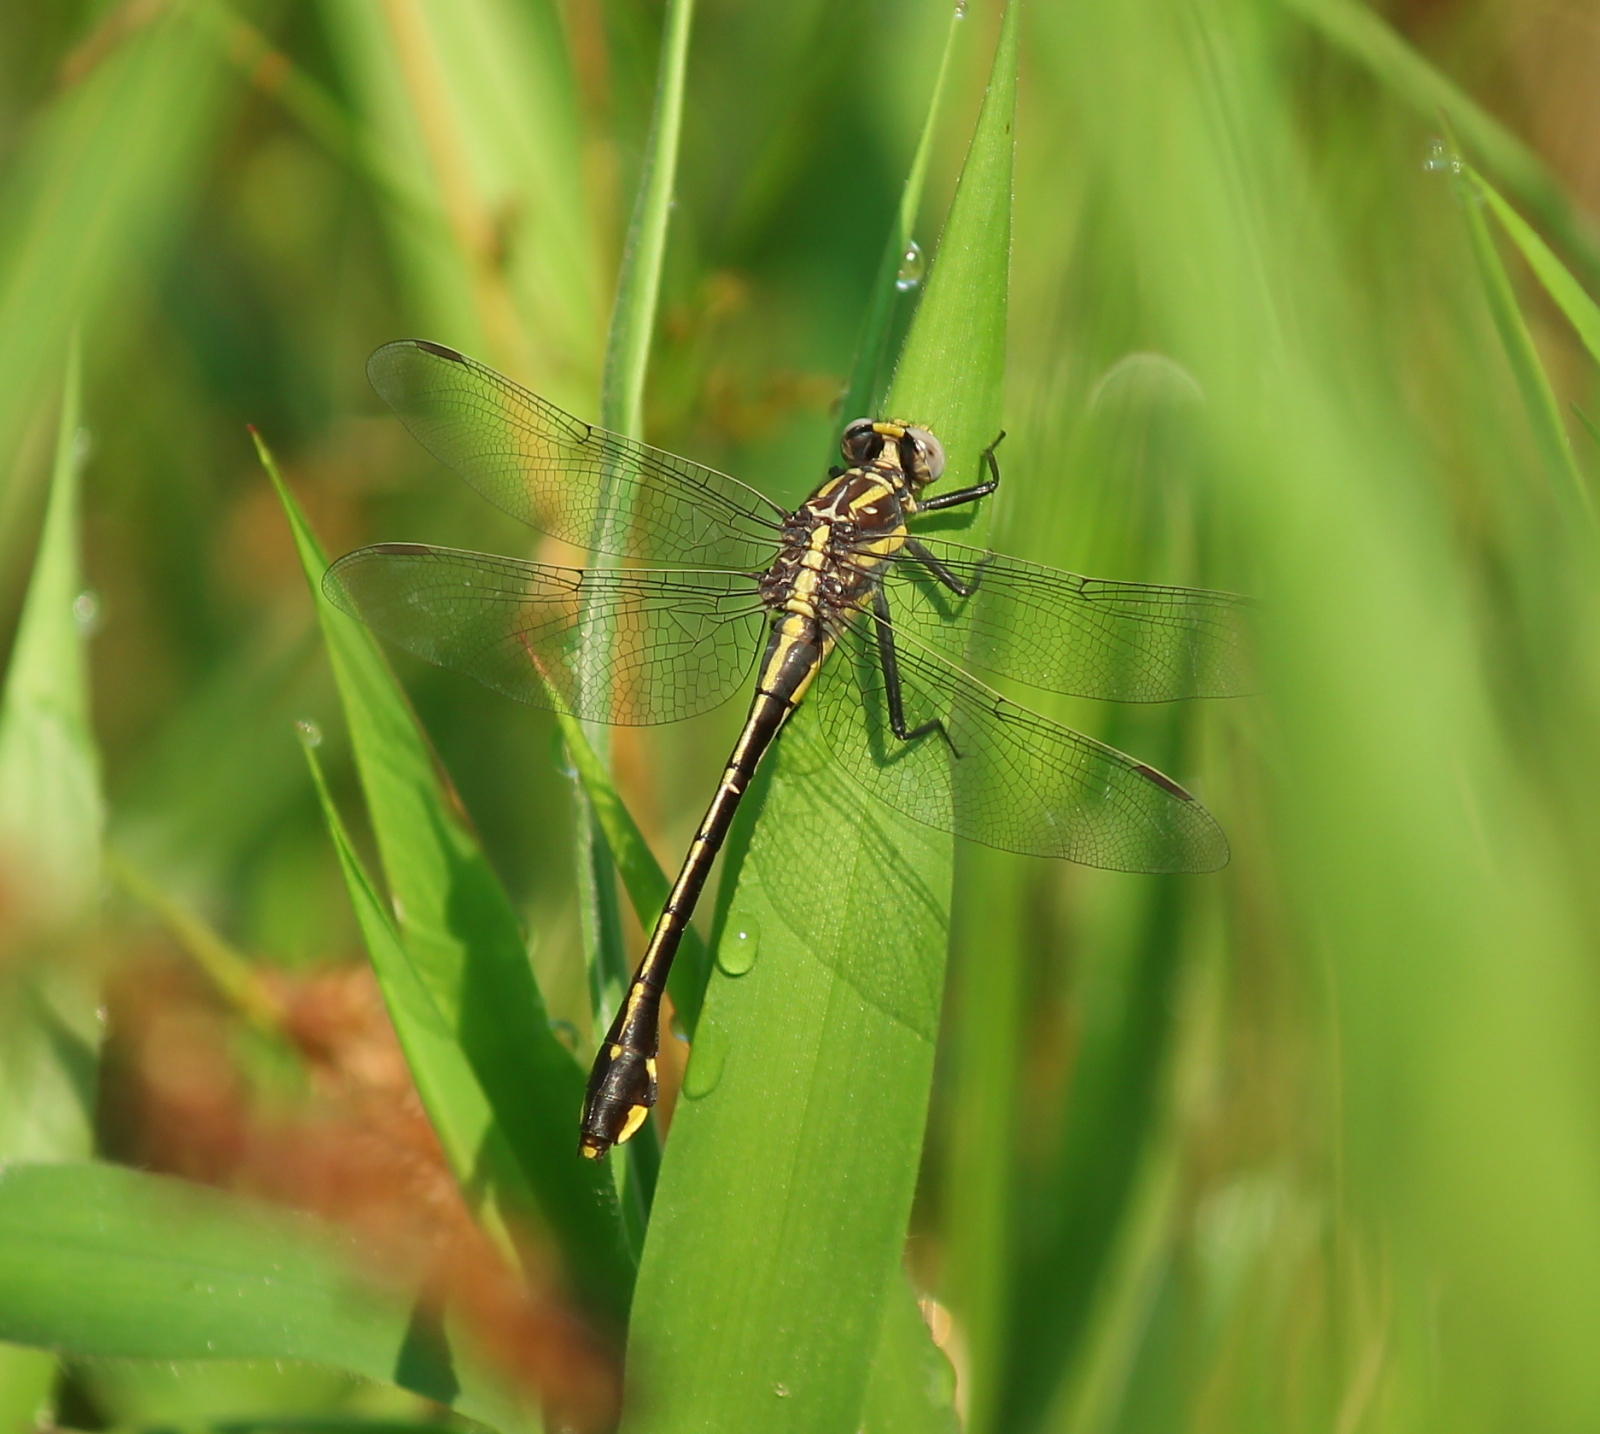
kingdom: Animalia
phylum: Arthropoda
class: Insecta
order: Odonata
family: Gomphidae
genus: Gomphurus
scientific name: Gomphurus ozarkensis
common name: Ozark clubtail
